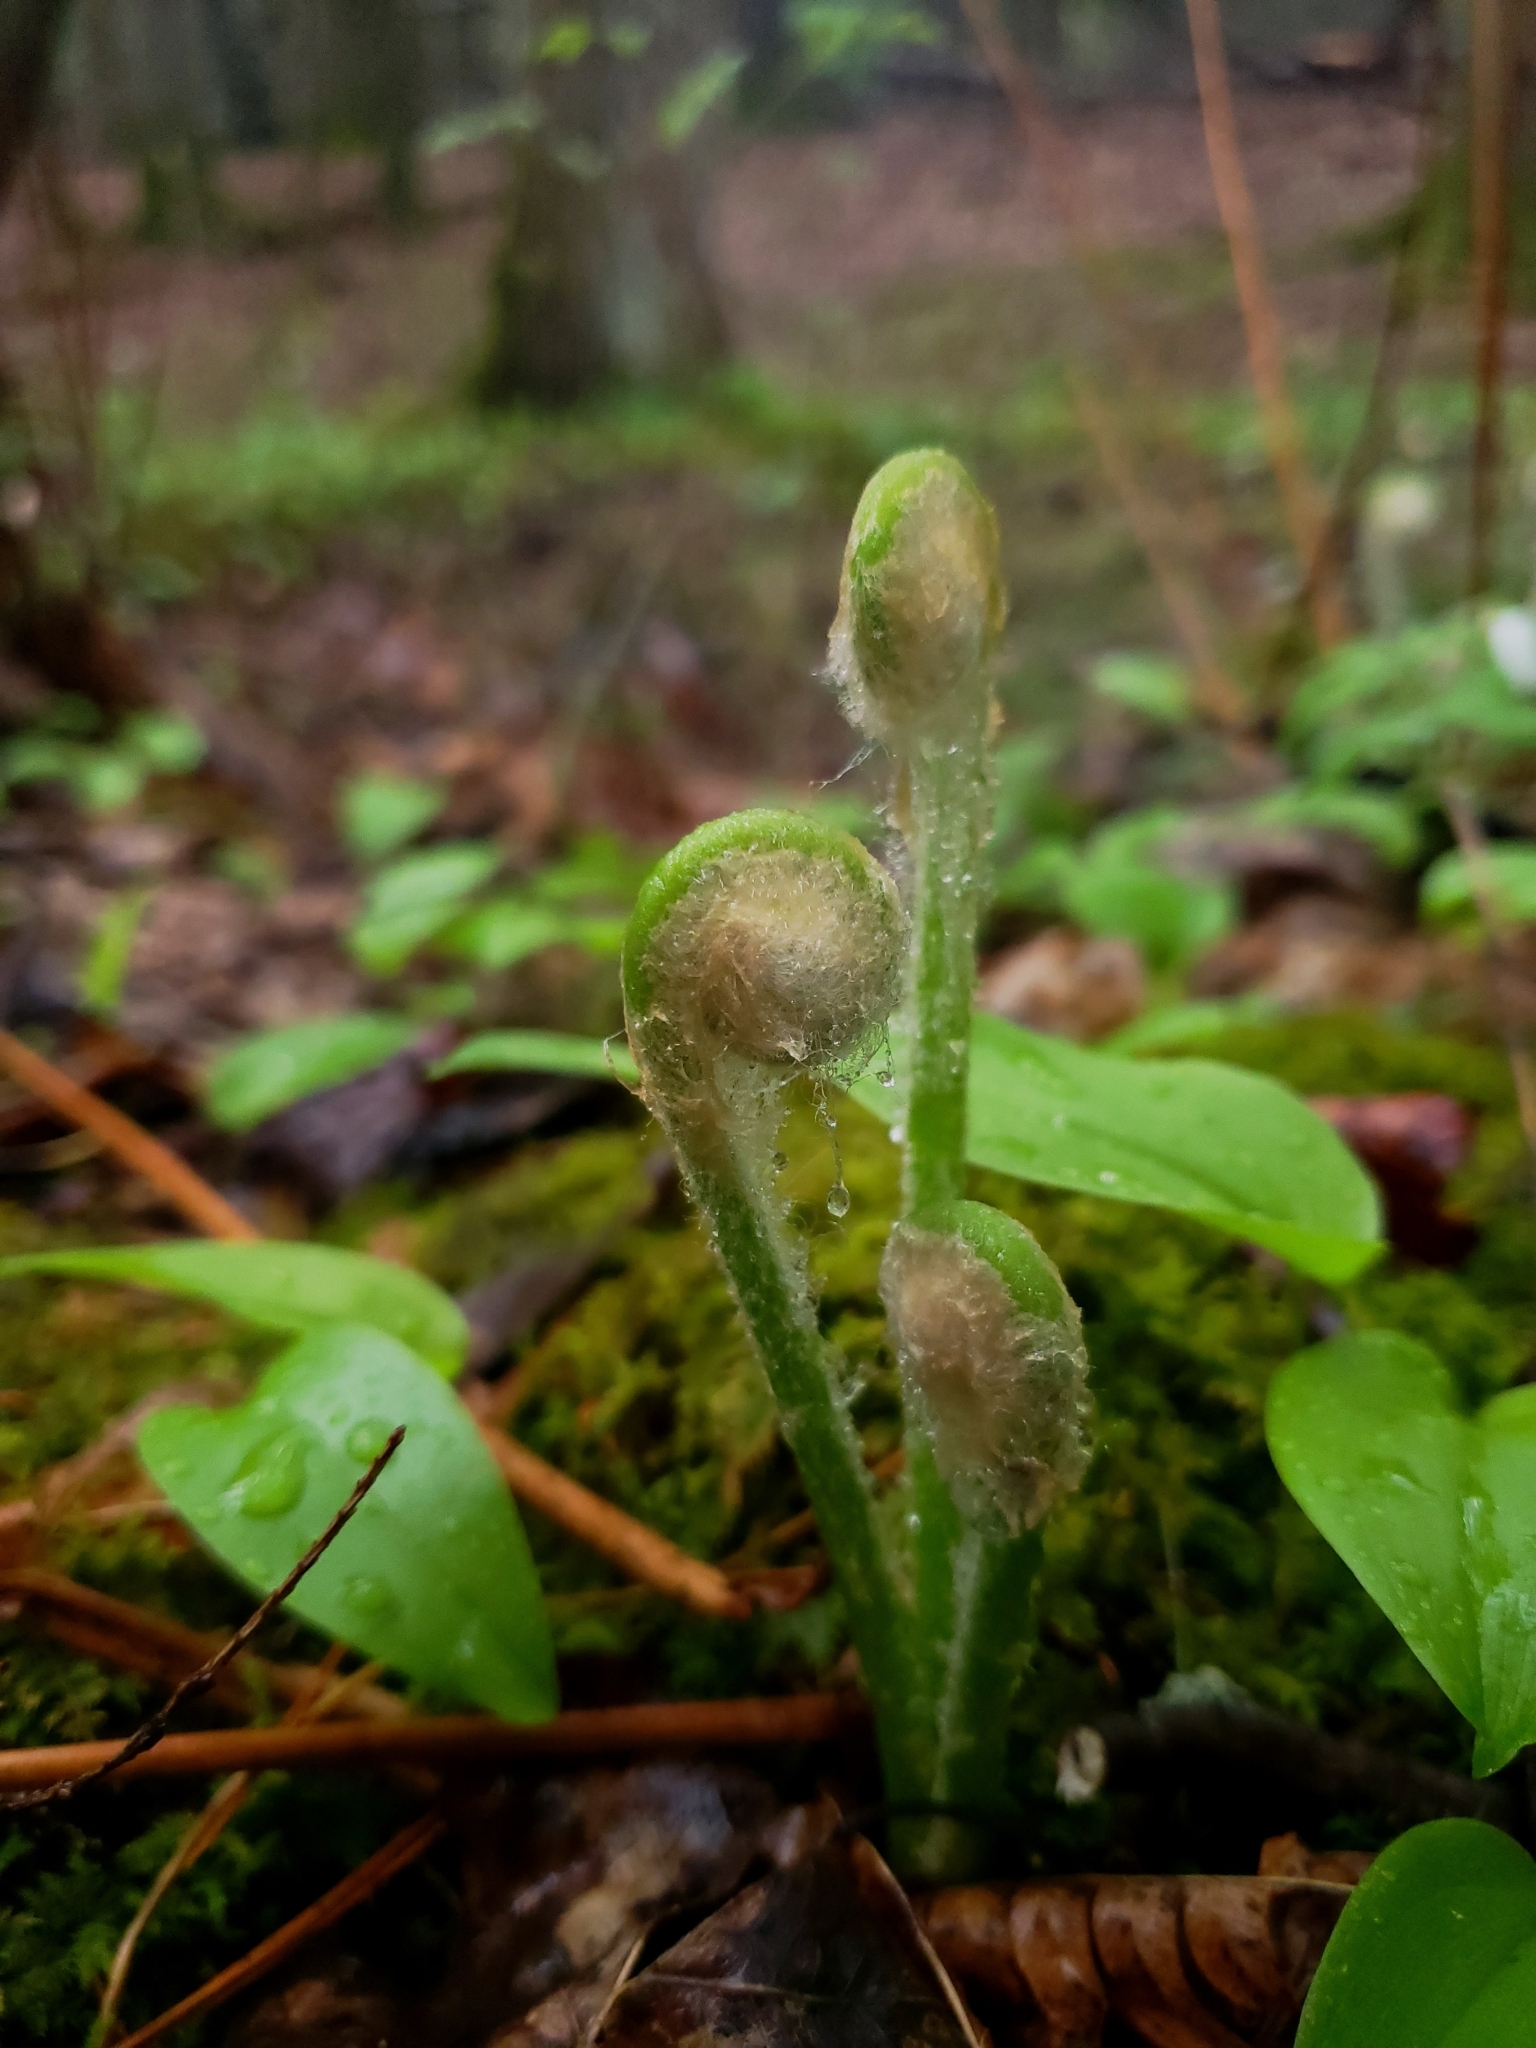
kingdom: Plantae
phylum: Tracheophyta
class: Polypodiopsida
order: Osmundales
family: Osmundaceae
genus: Claytosmunda
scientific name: Claytosmunda claytoniana
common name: Clayton's fern
